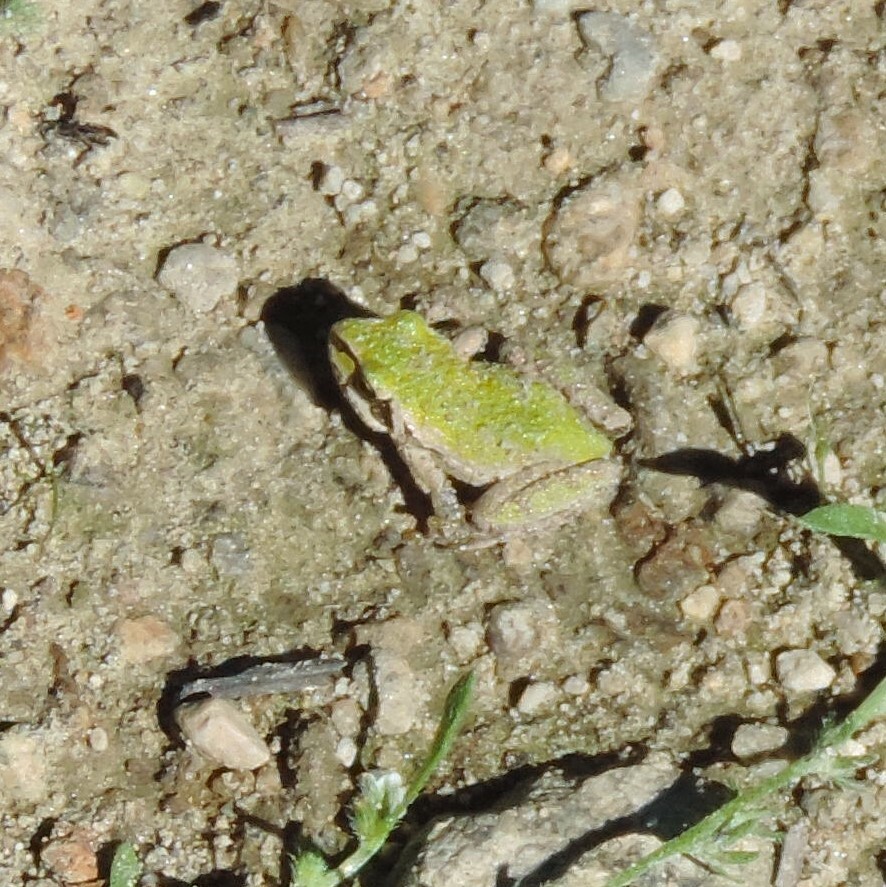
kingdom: Animalia
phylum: Chordata
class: Amphibia
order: Anura
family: Hylidae
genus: Pseudacris
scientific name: Pseudacris regilla
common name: Pacific chorus frog
